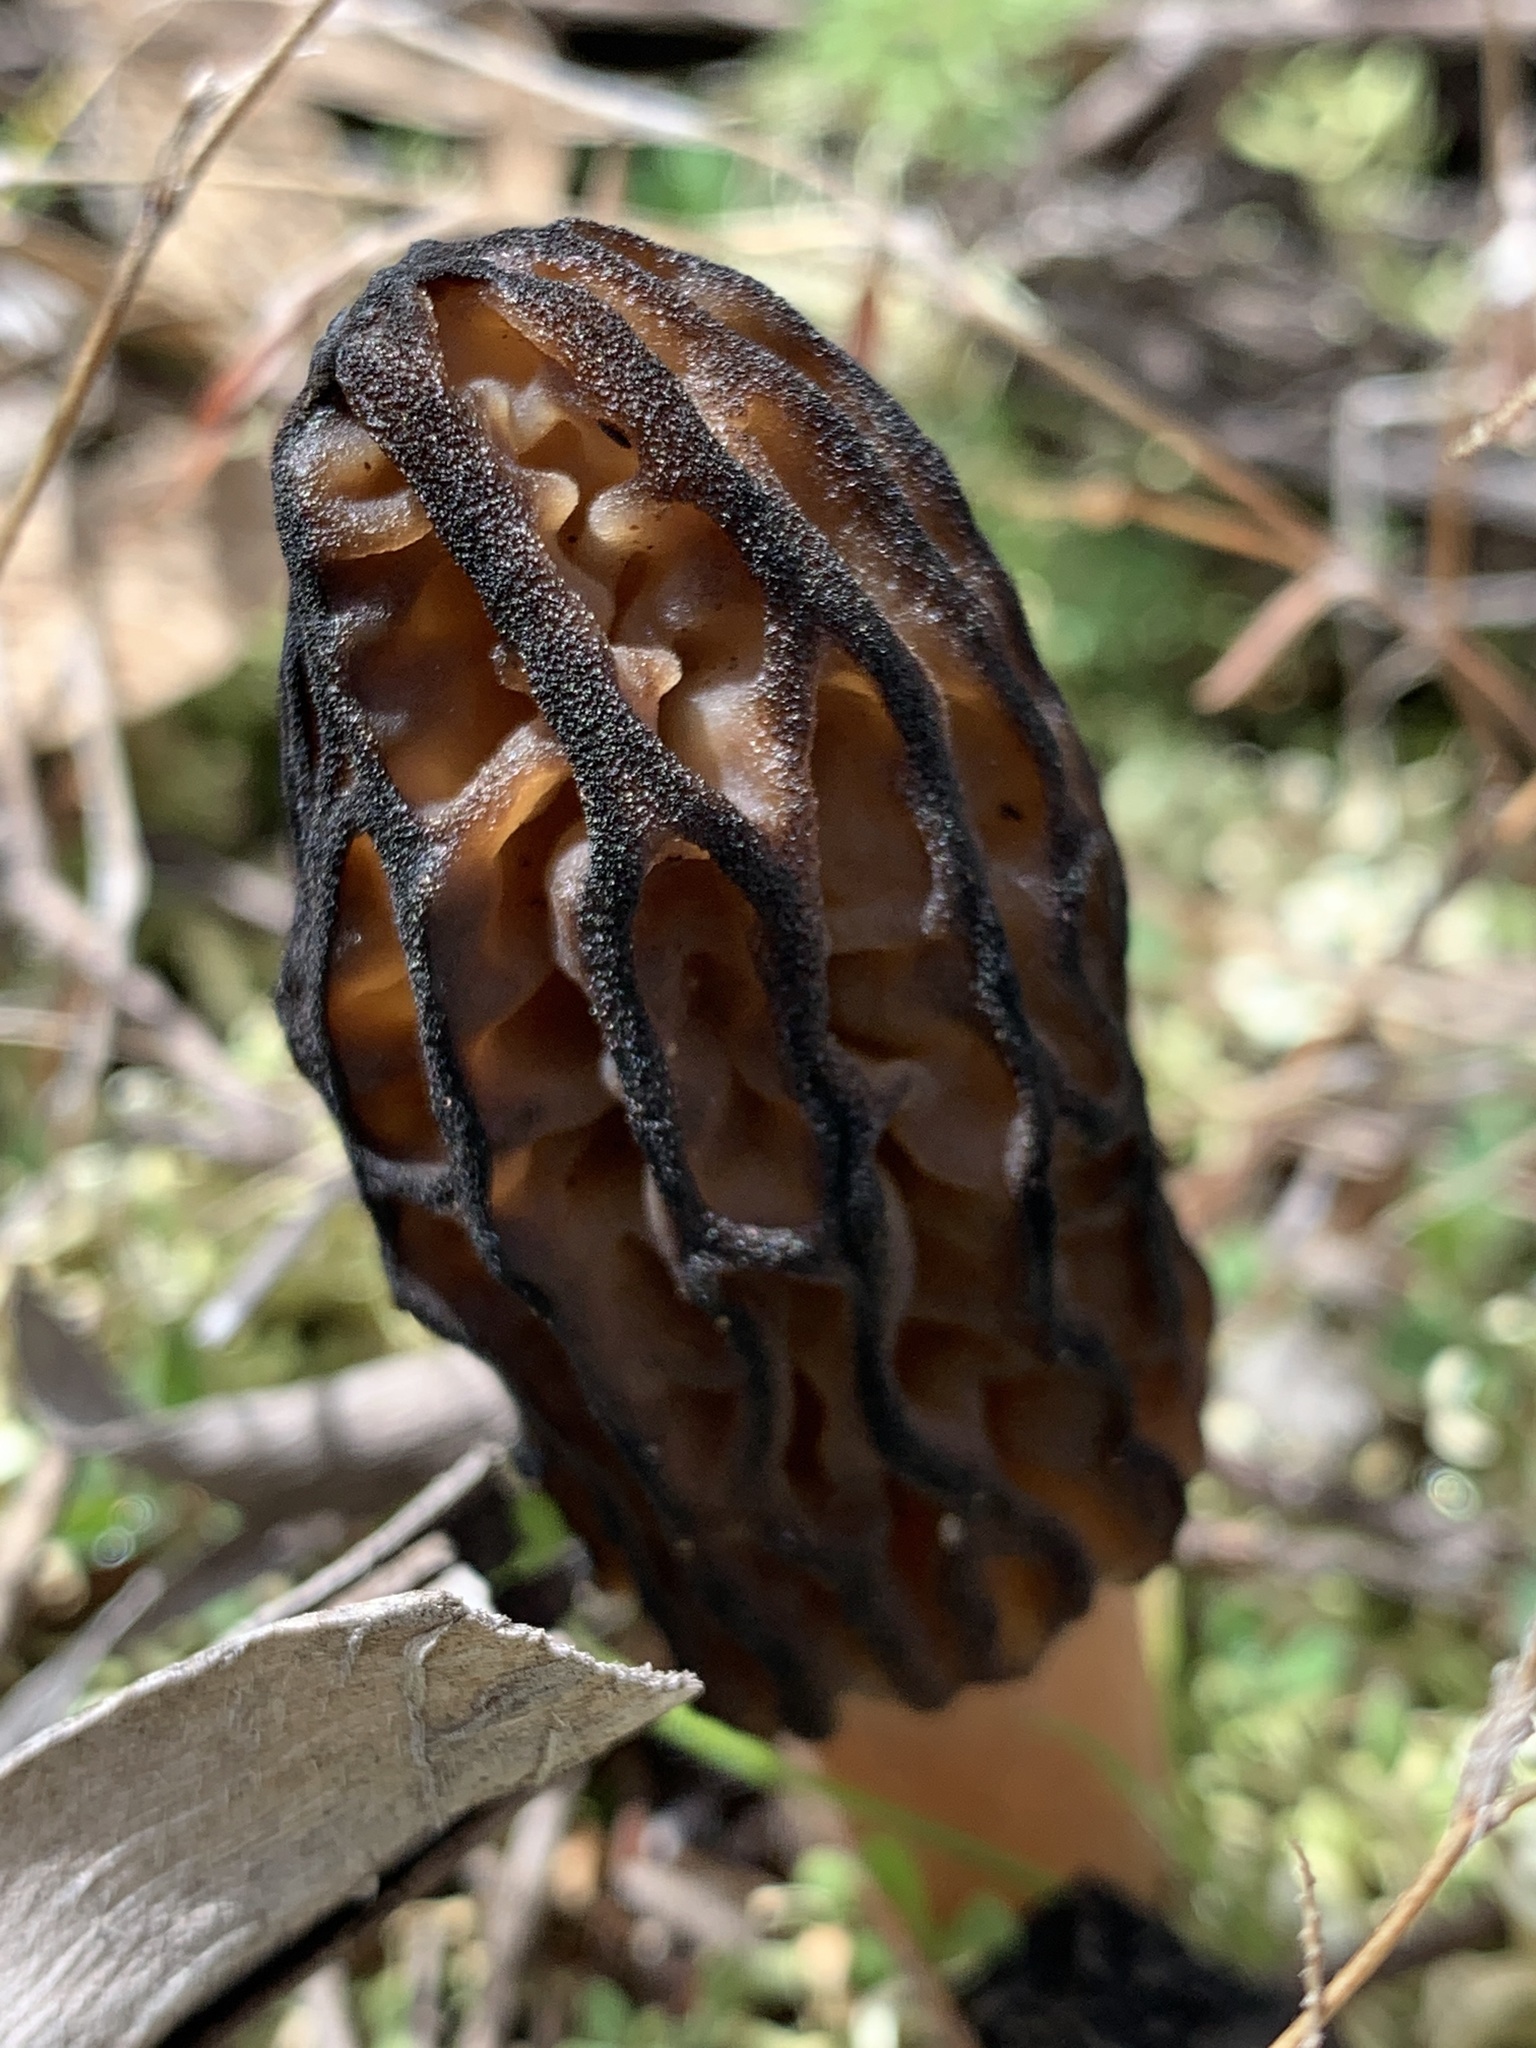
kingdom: Fungi
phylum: Ascomycota
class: Pezizomycetes
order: Pezizales
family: Morchellaceae
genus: Morchella
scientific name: Morchella australiana
